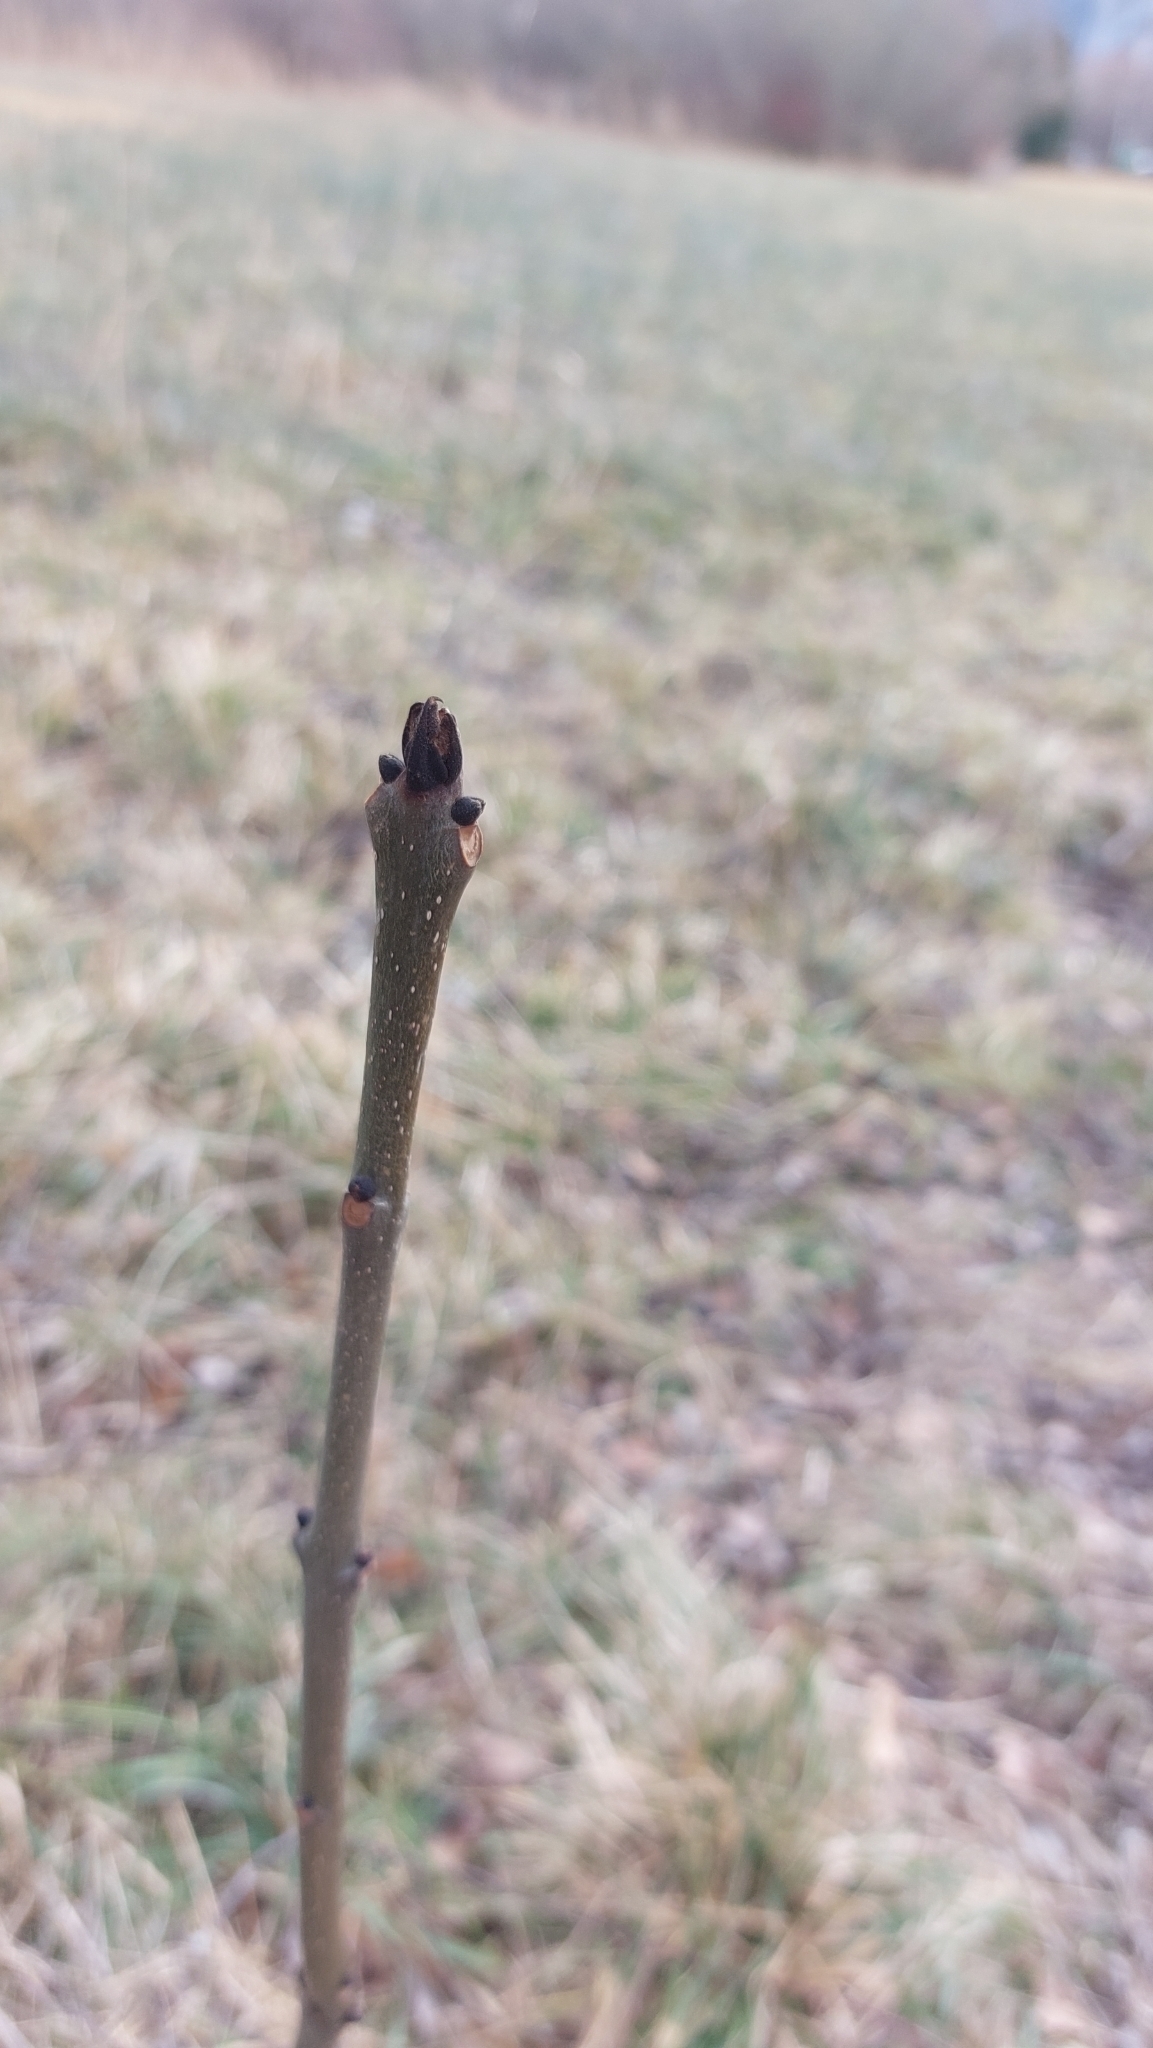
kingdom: Plantae
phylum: Tracheophyta
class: Magnoliopsida
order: Lamiales
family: Oleaceae
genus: Fraxinus
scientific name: Fraxinus excelsior
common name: European ash
